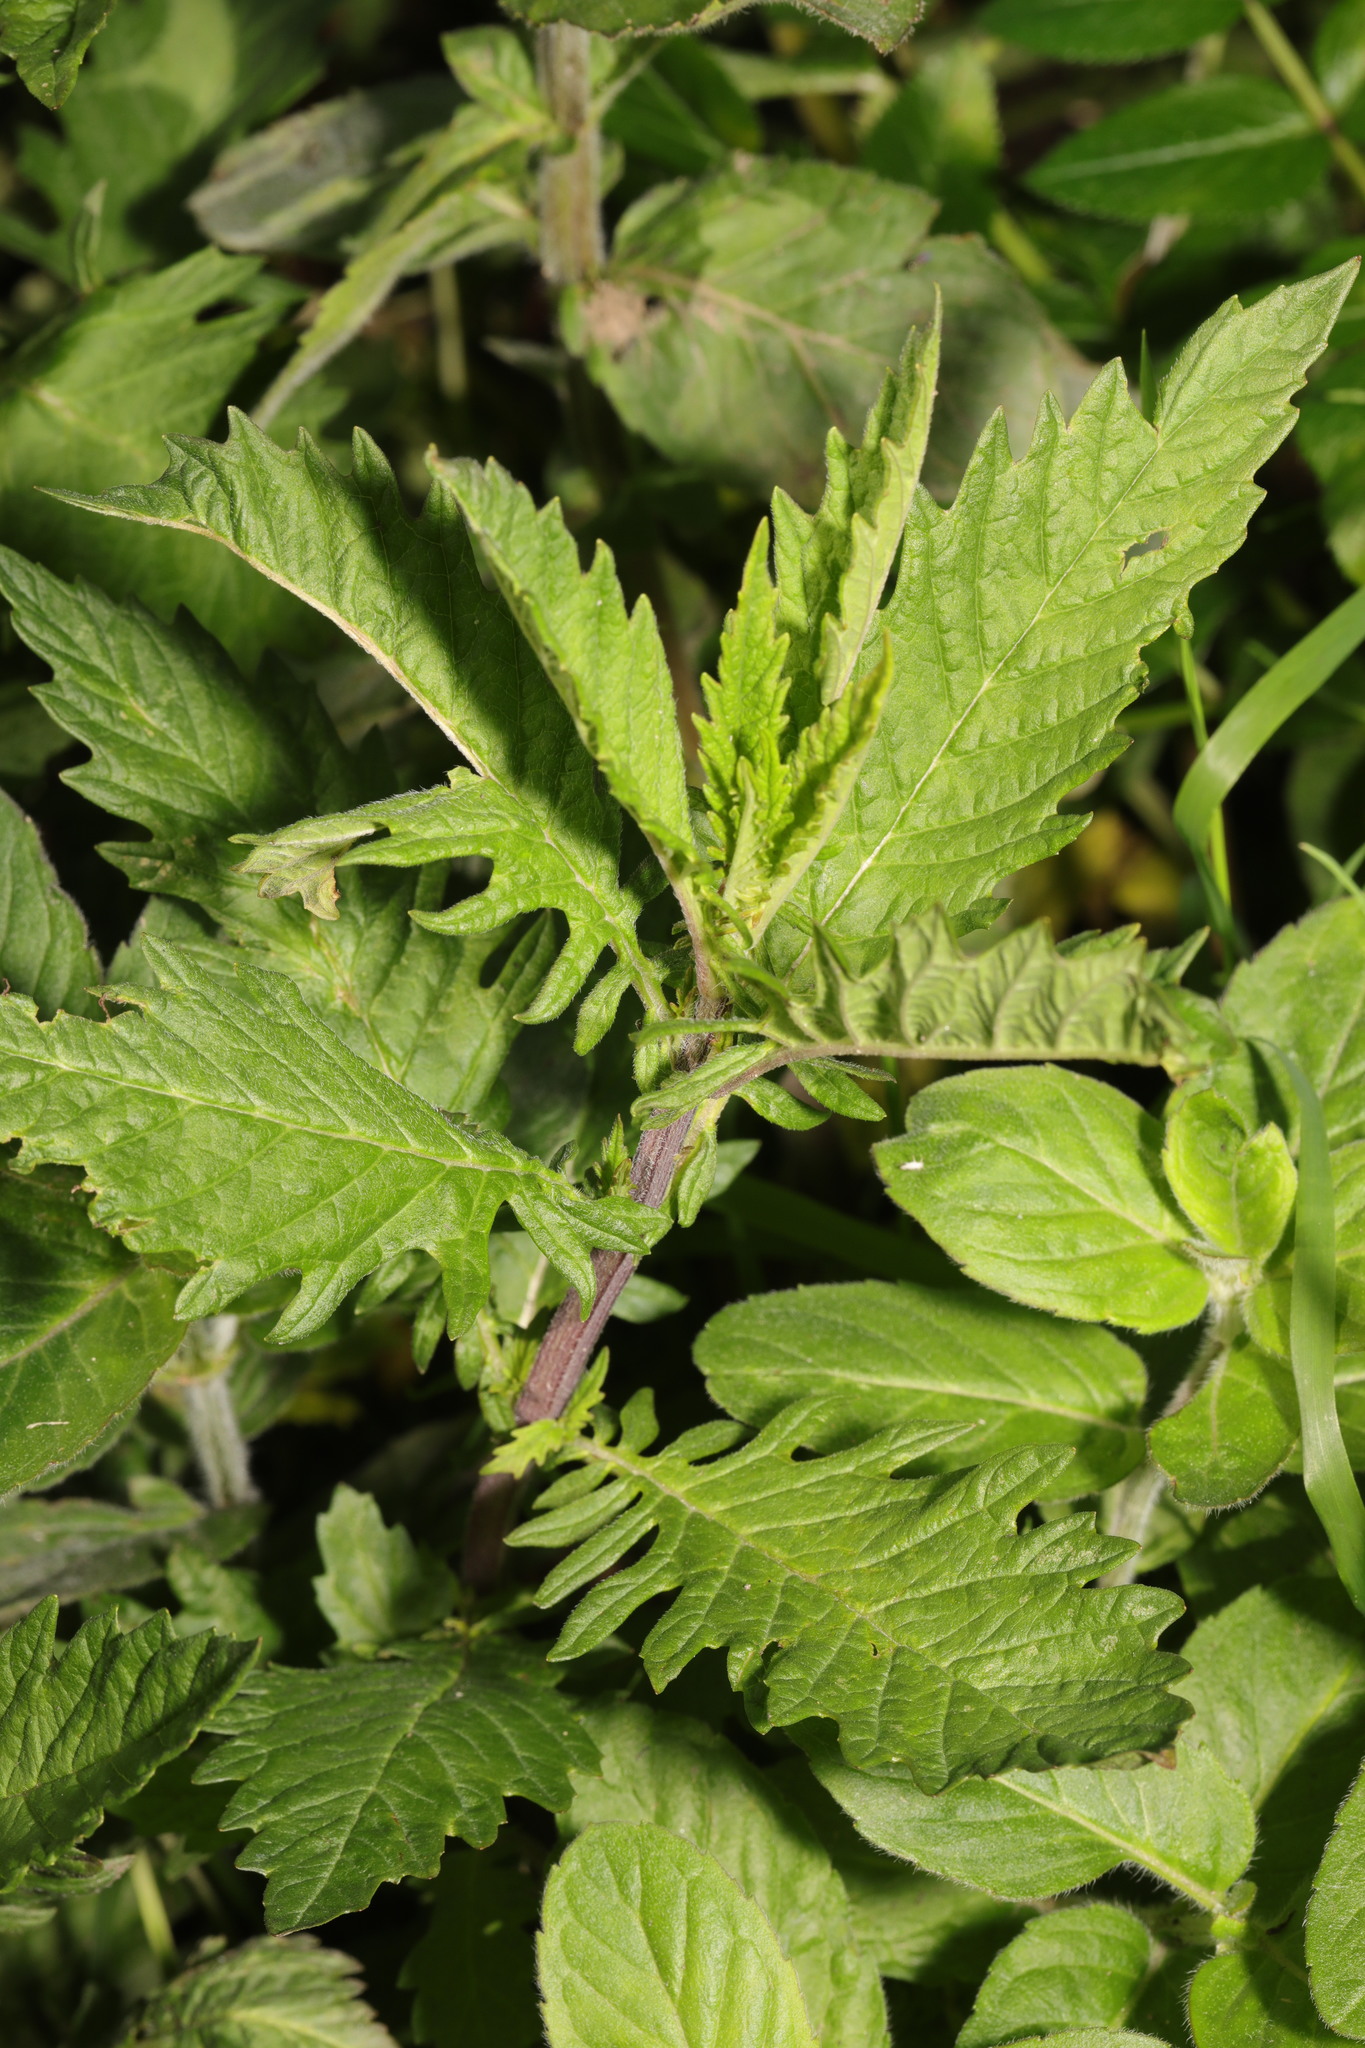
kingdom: Plantae
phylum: Tracheophyta
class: Magnoliopsida
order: Lamiales
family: Lamiaceae
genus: Lycopus
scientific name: Lycopus europaeus
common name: European bugleweed
